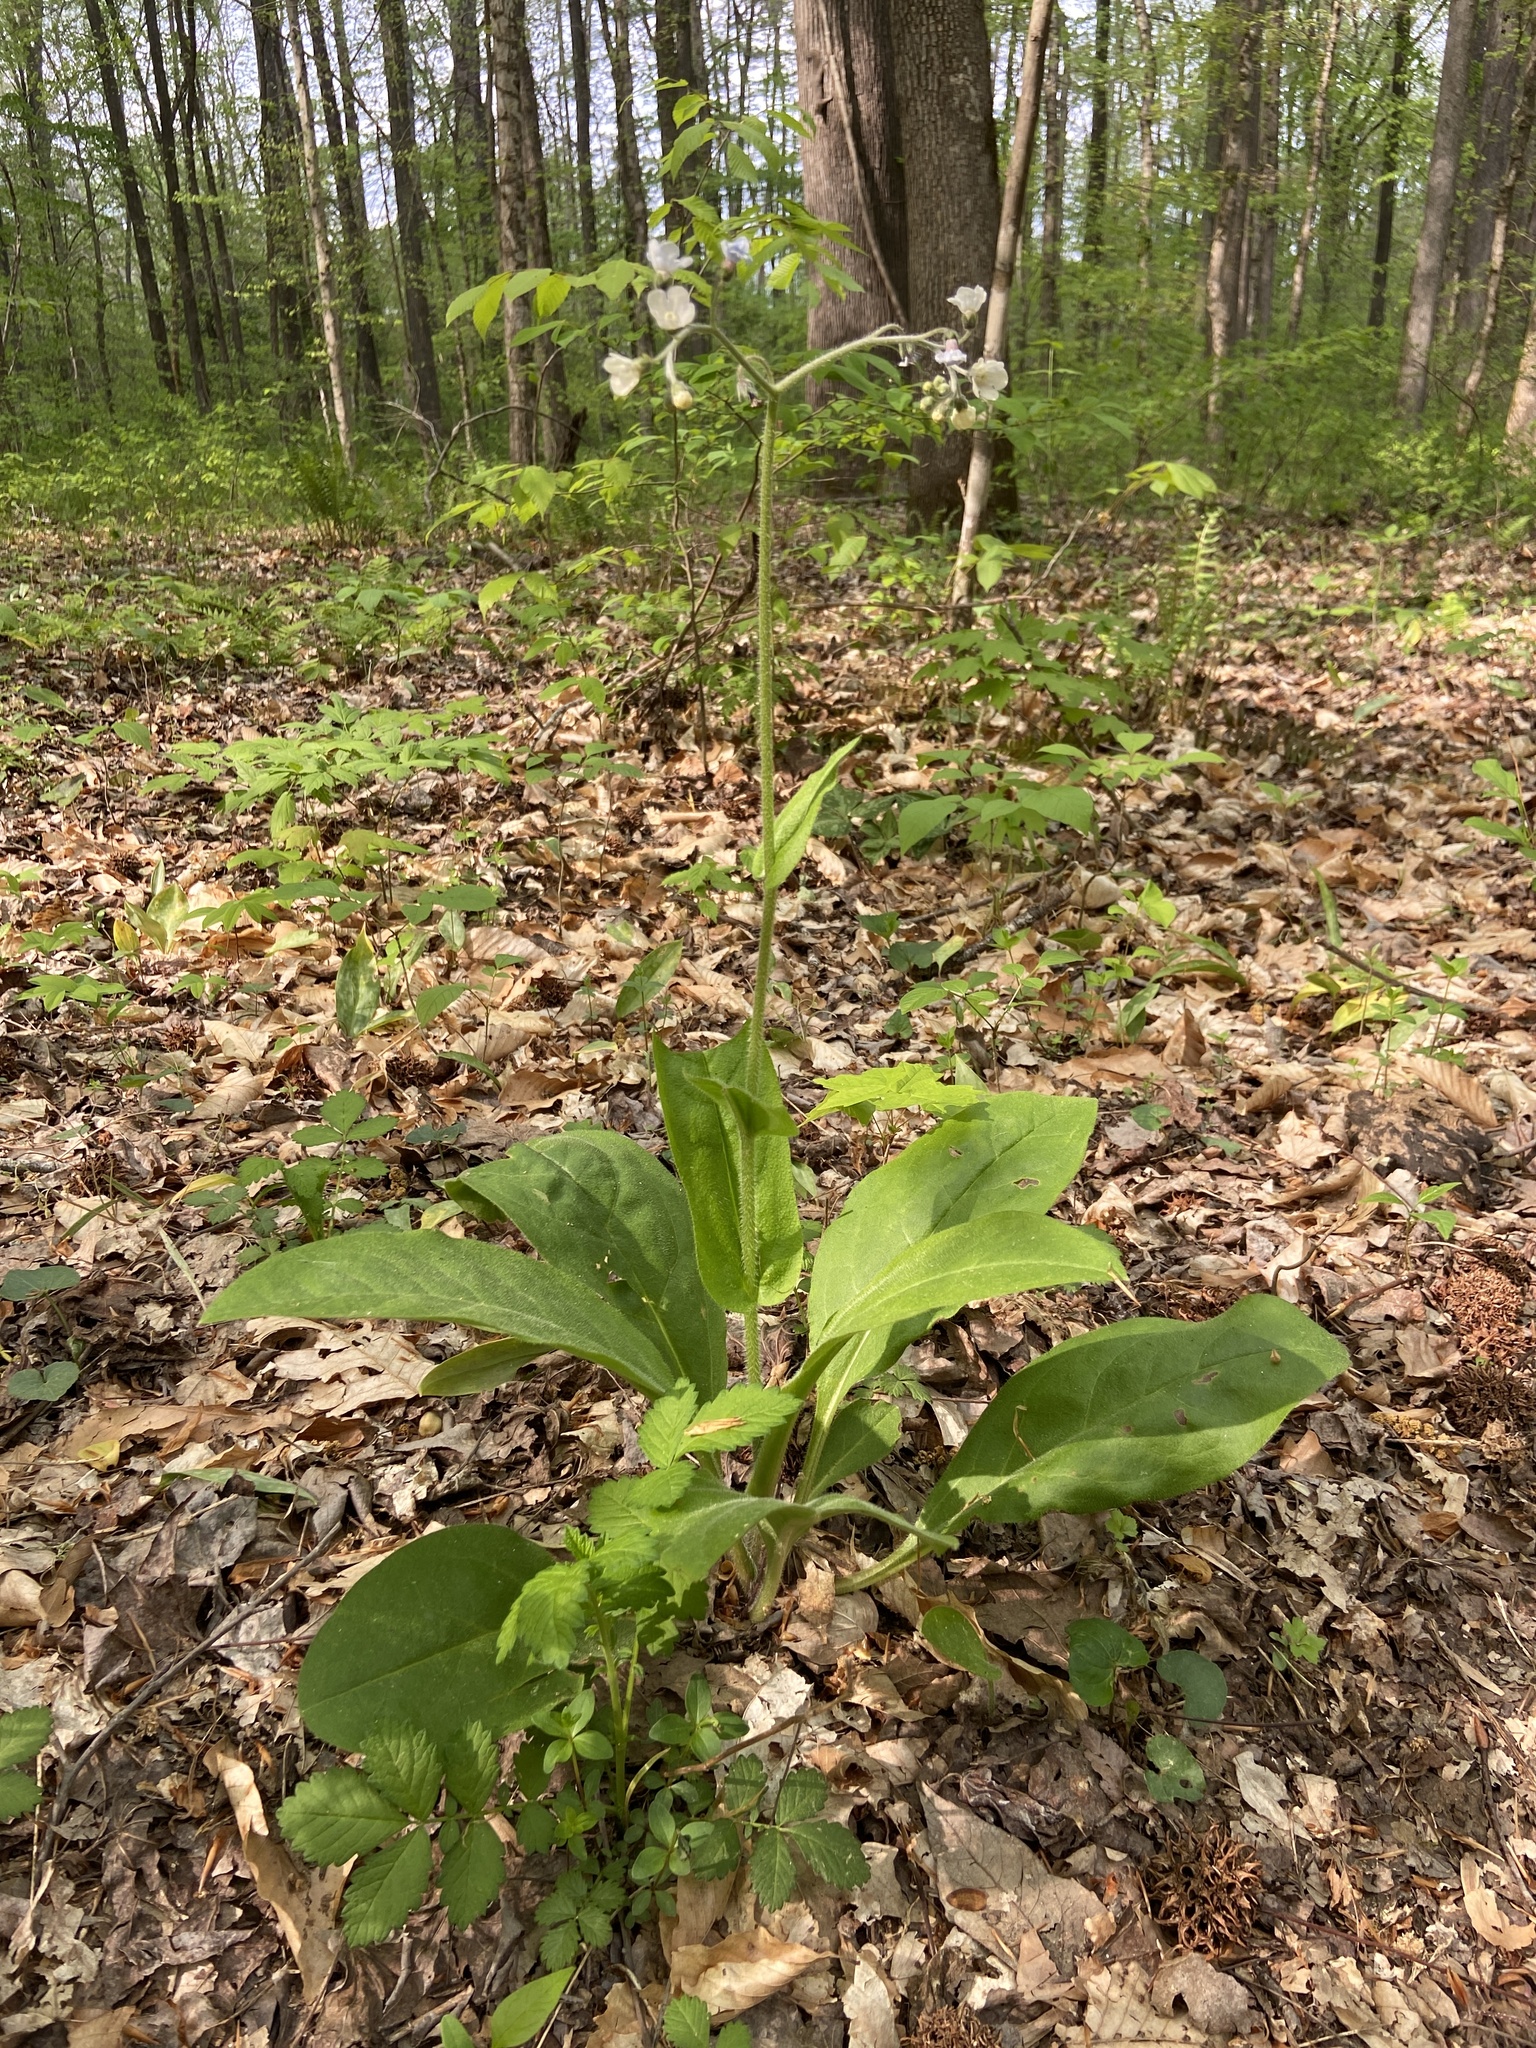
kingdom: Plantae
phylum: Tracheophyta
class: Magnoliopsida
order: Boraginales
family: Boraginaceae
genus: Andersonglossum
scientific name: Andersonglossum virginianum
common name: Wild comfrey
